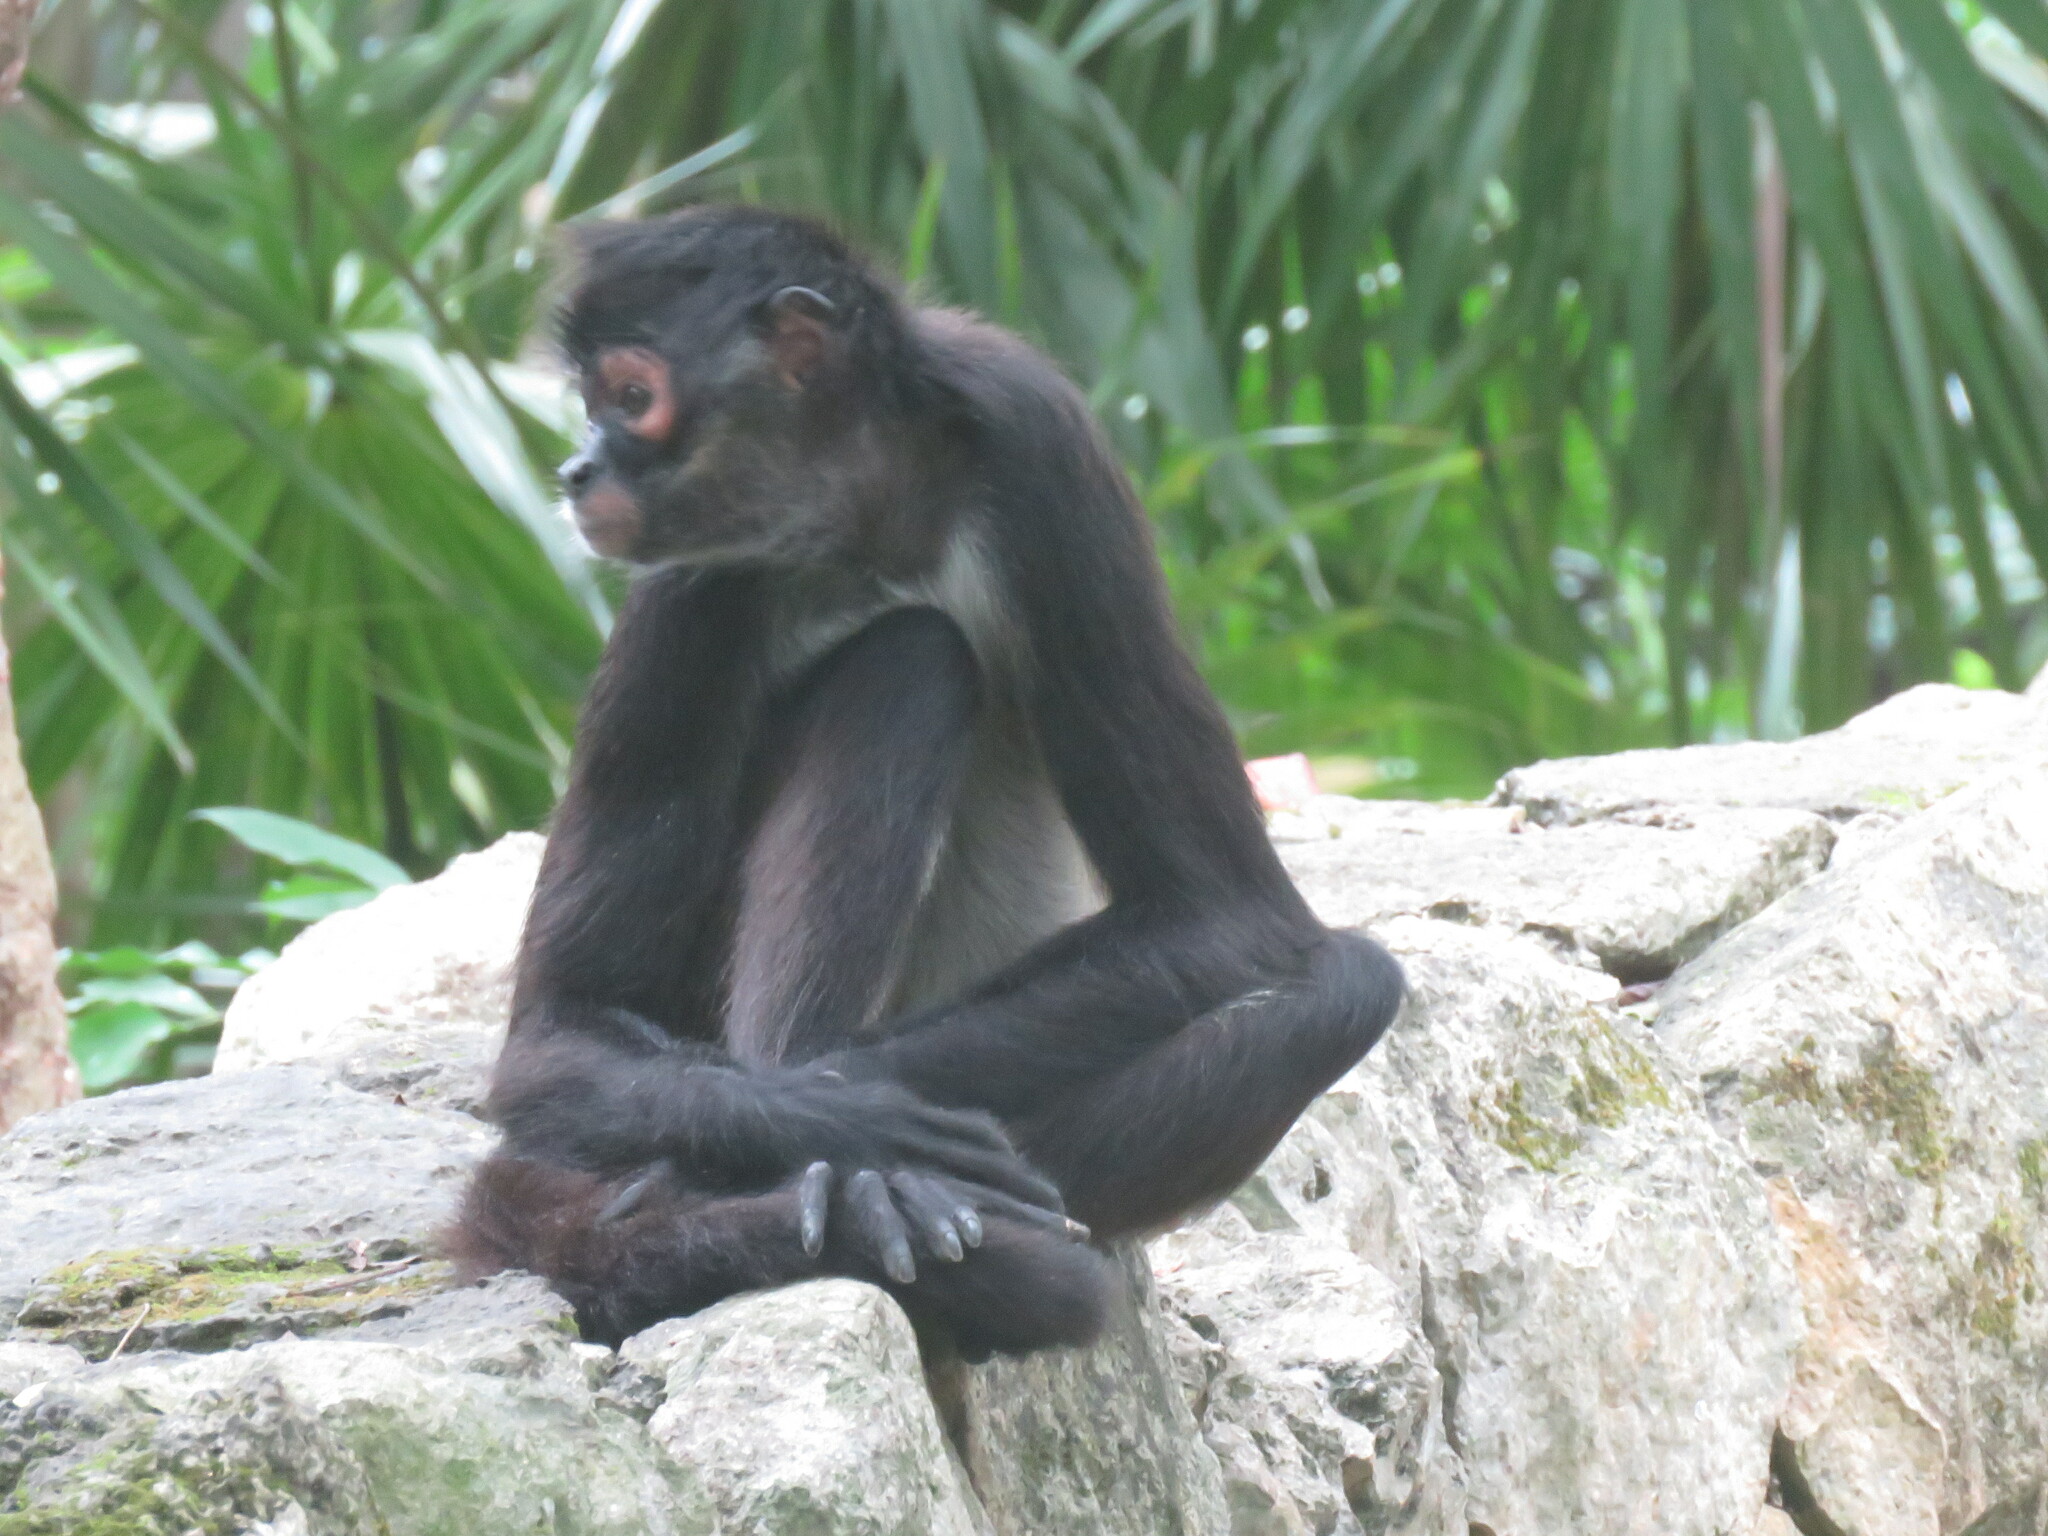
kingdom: Animalia
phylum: Chordata
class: Mammalia
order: Primates
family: Atelidae
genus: Ateles
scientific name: Ateles geoffroyi
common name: Black-handed spider monkey
